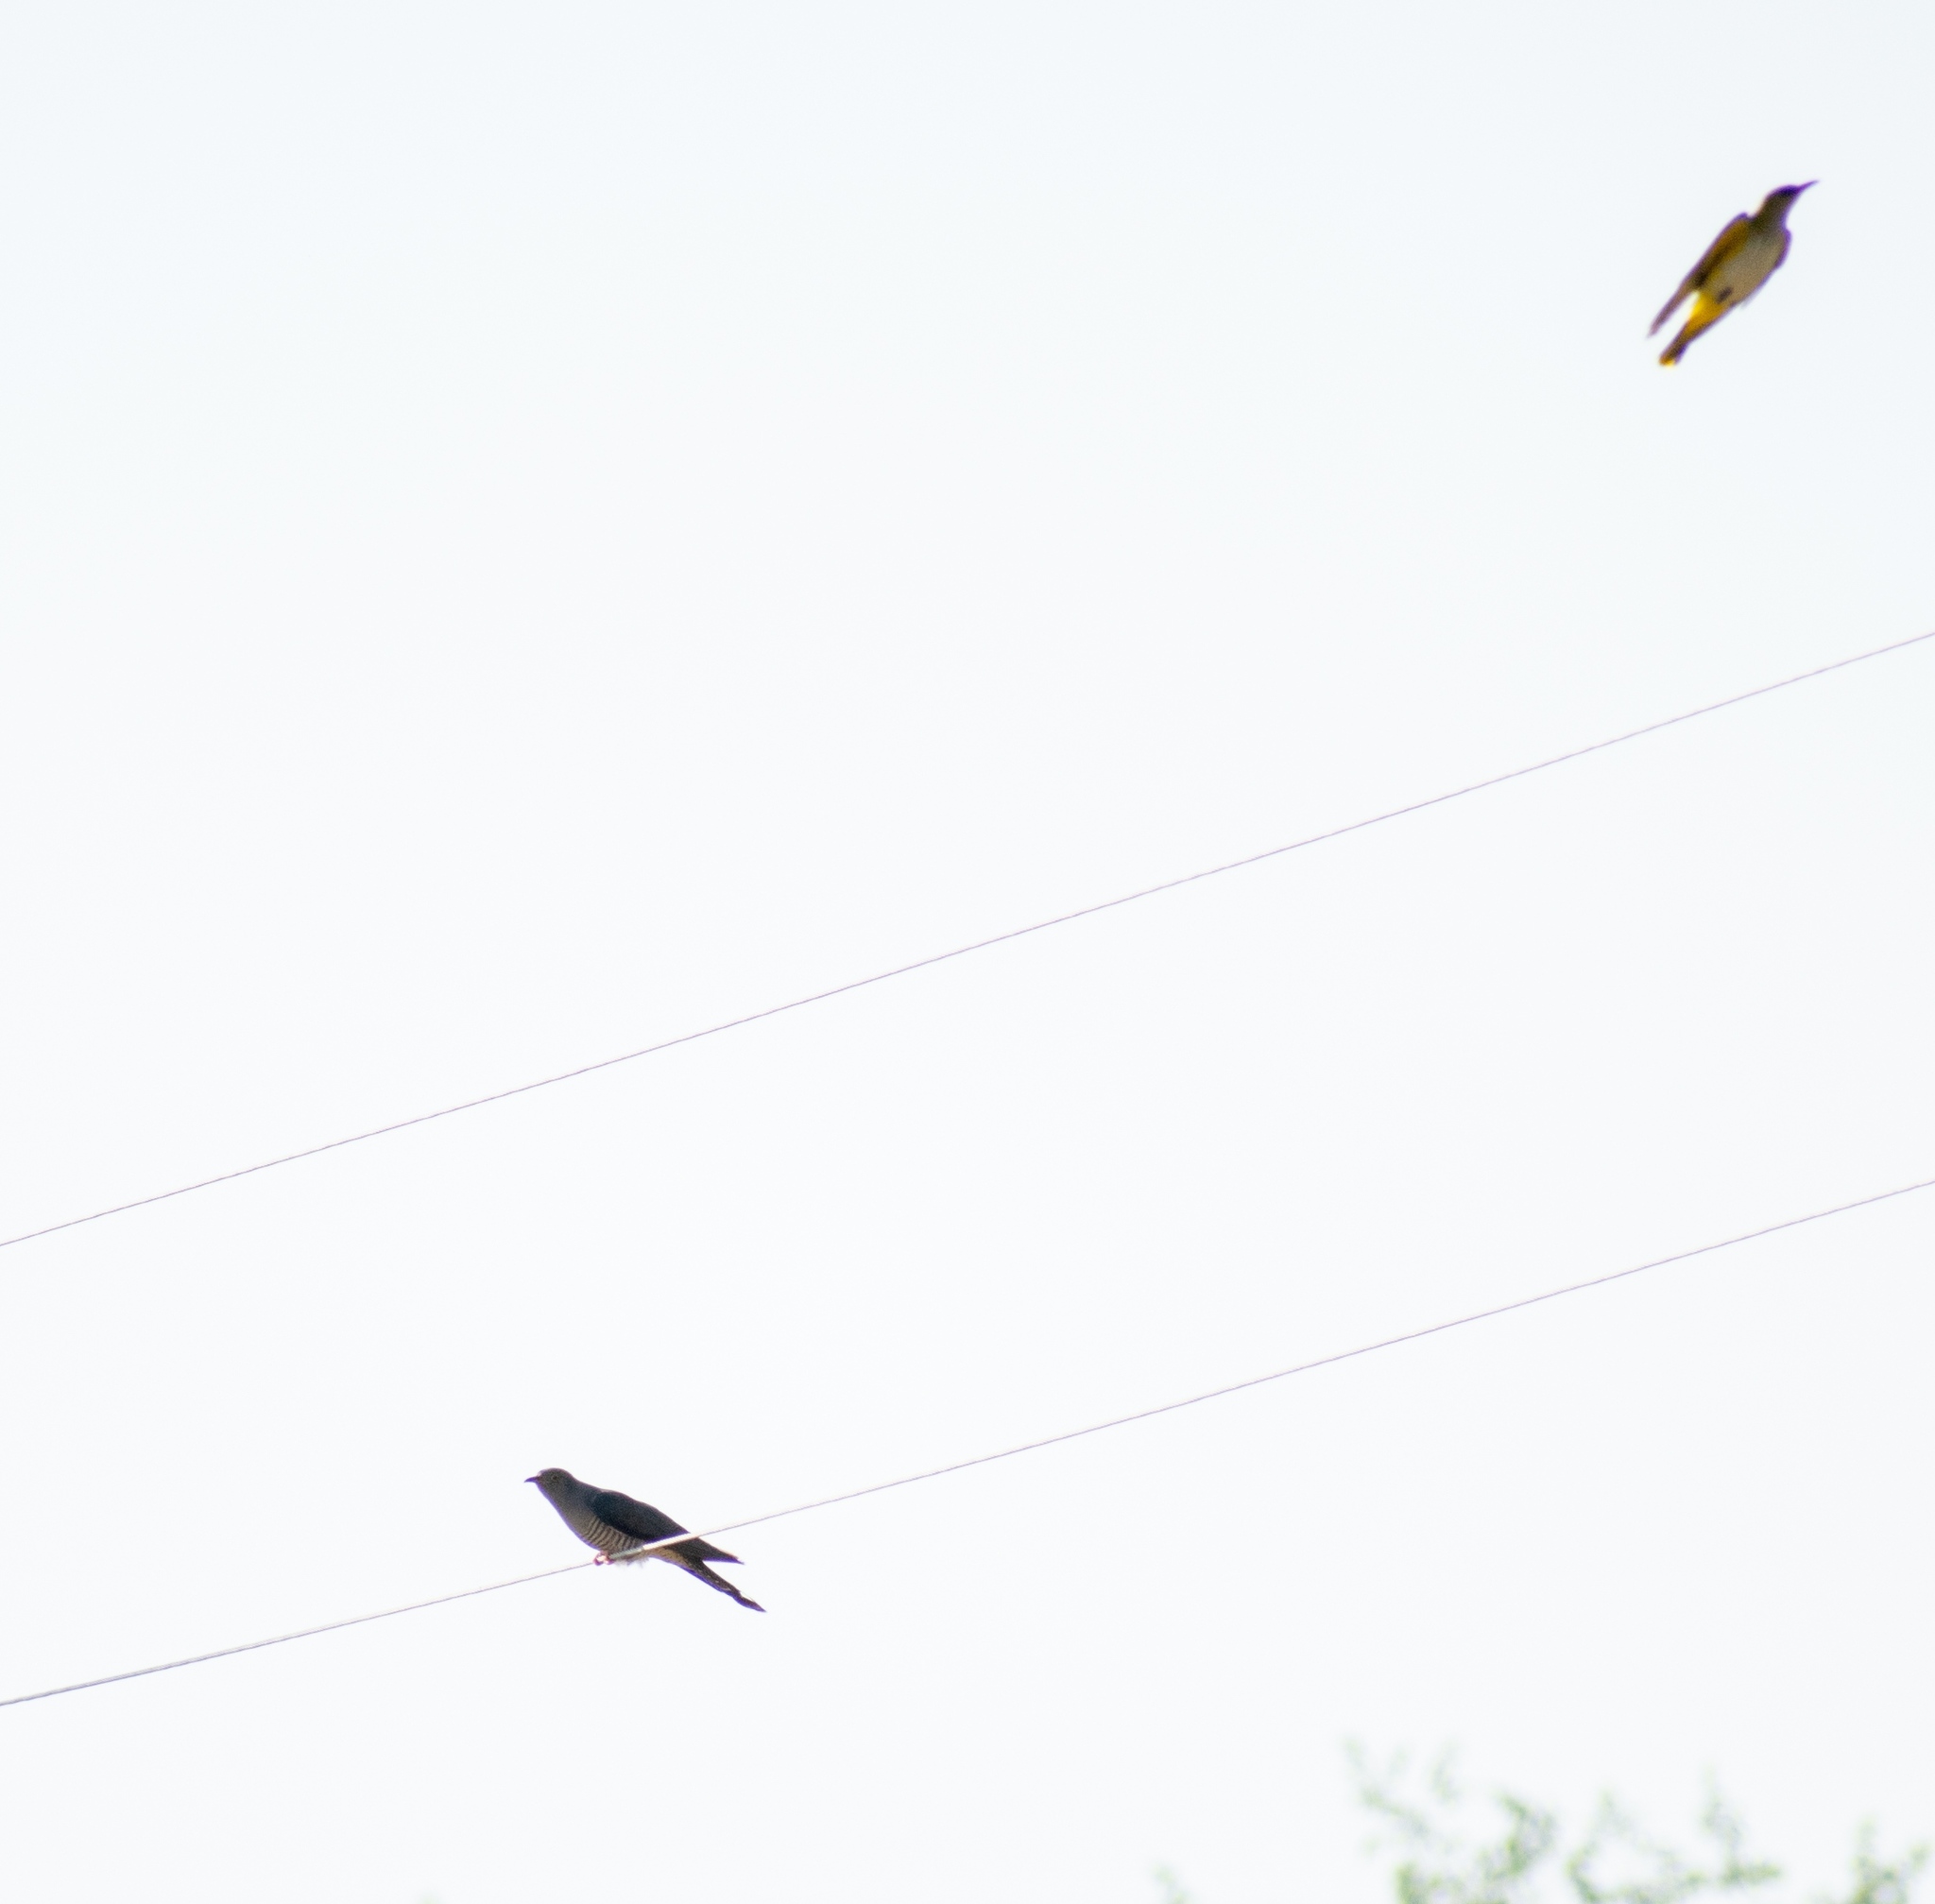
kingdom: Animalia
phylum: Chordata
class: Aves
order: Passeriformes
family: Oriolidae
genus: Oriolus
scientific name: Oriolus oriolus
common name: Eurasian golden oriole
